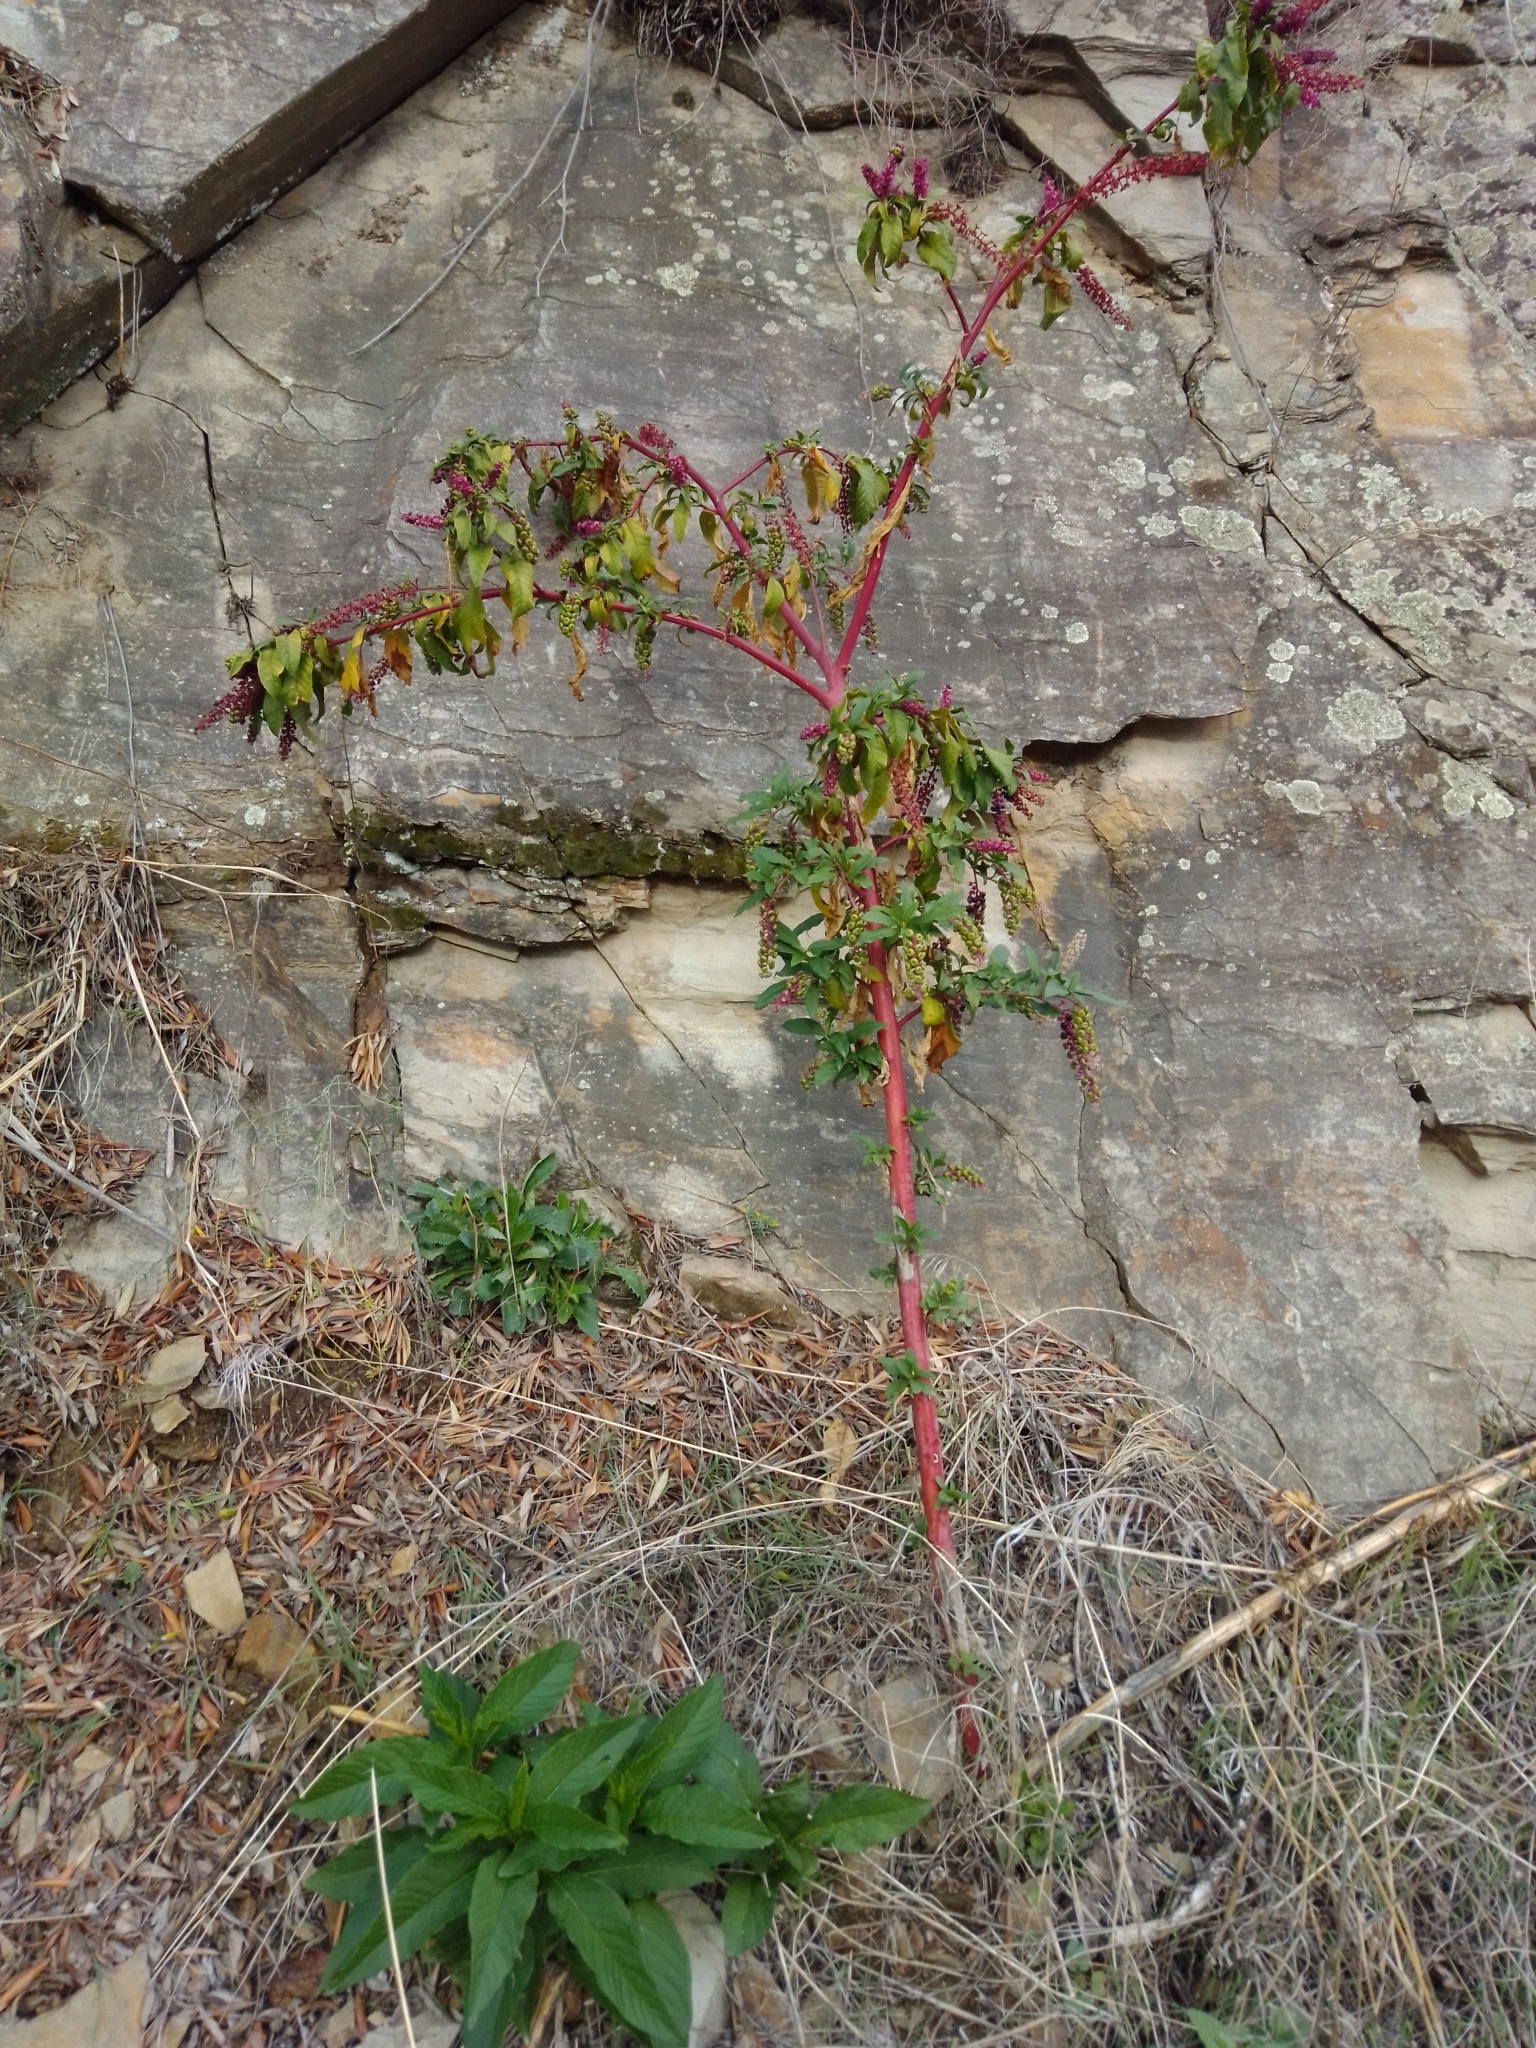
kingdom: Plantae
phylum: Tracheophyta
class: Magnoliopsida
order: Caryophyllales
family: Phytolaccaceae
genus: Phytolacca
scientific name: Phytolacca americana
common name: American pokeweed
